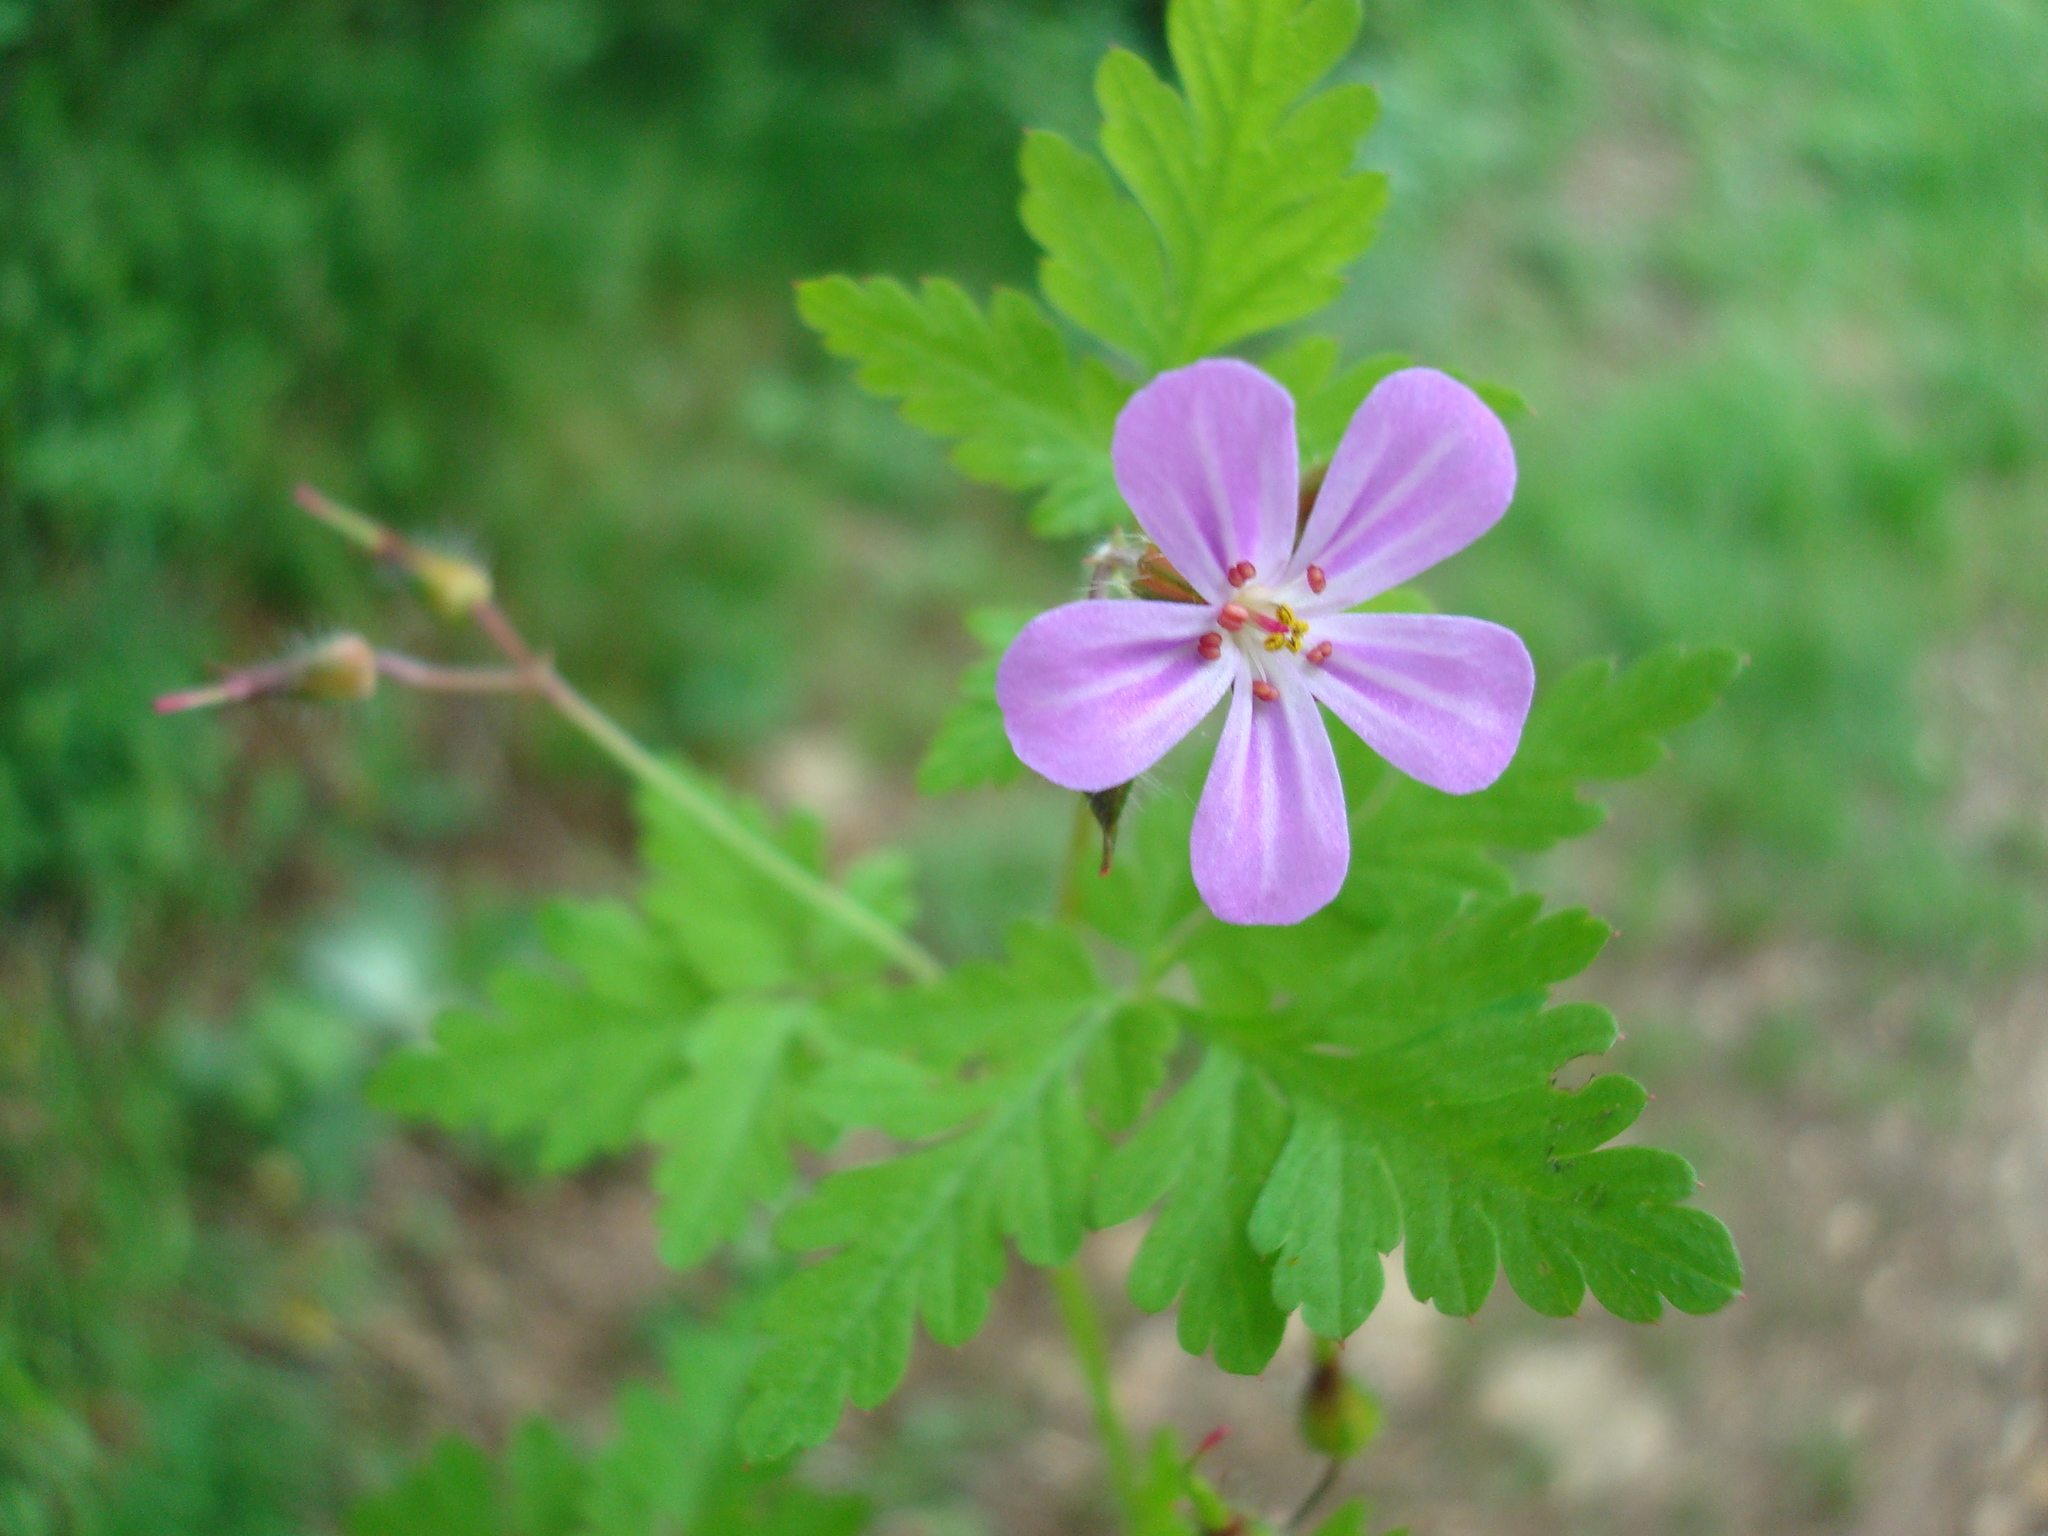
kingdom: Plantae
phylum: Tracheophyta
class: Magnoliopsida
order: Geraniales
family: Geraniaceae
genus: Geranium
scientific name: Geranium robertianum
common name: Herb-robert
